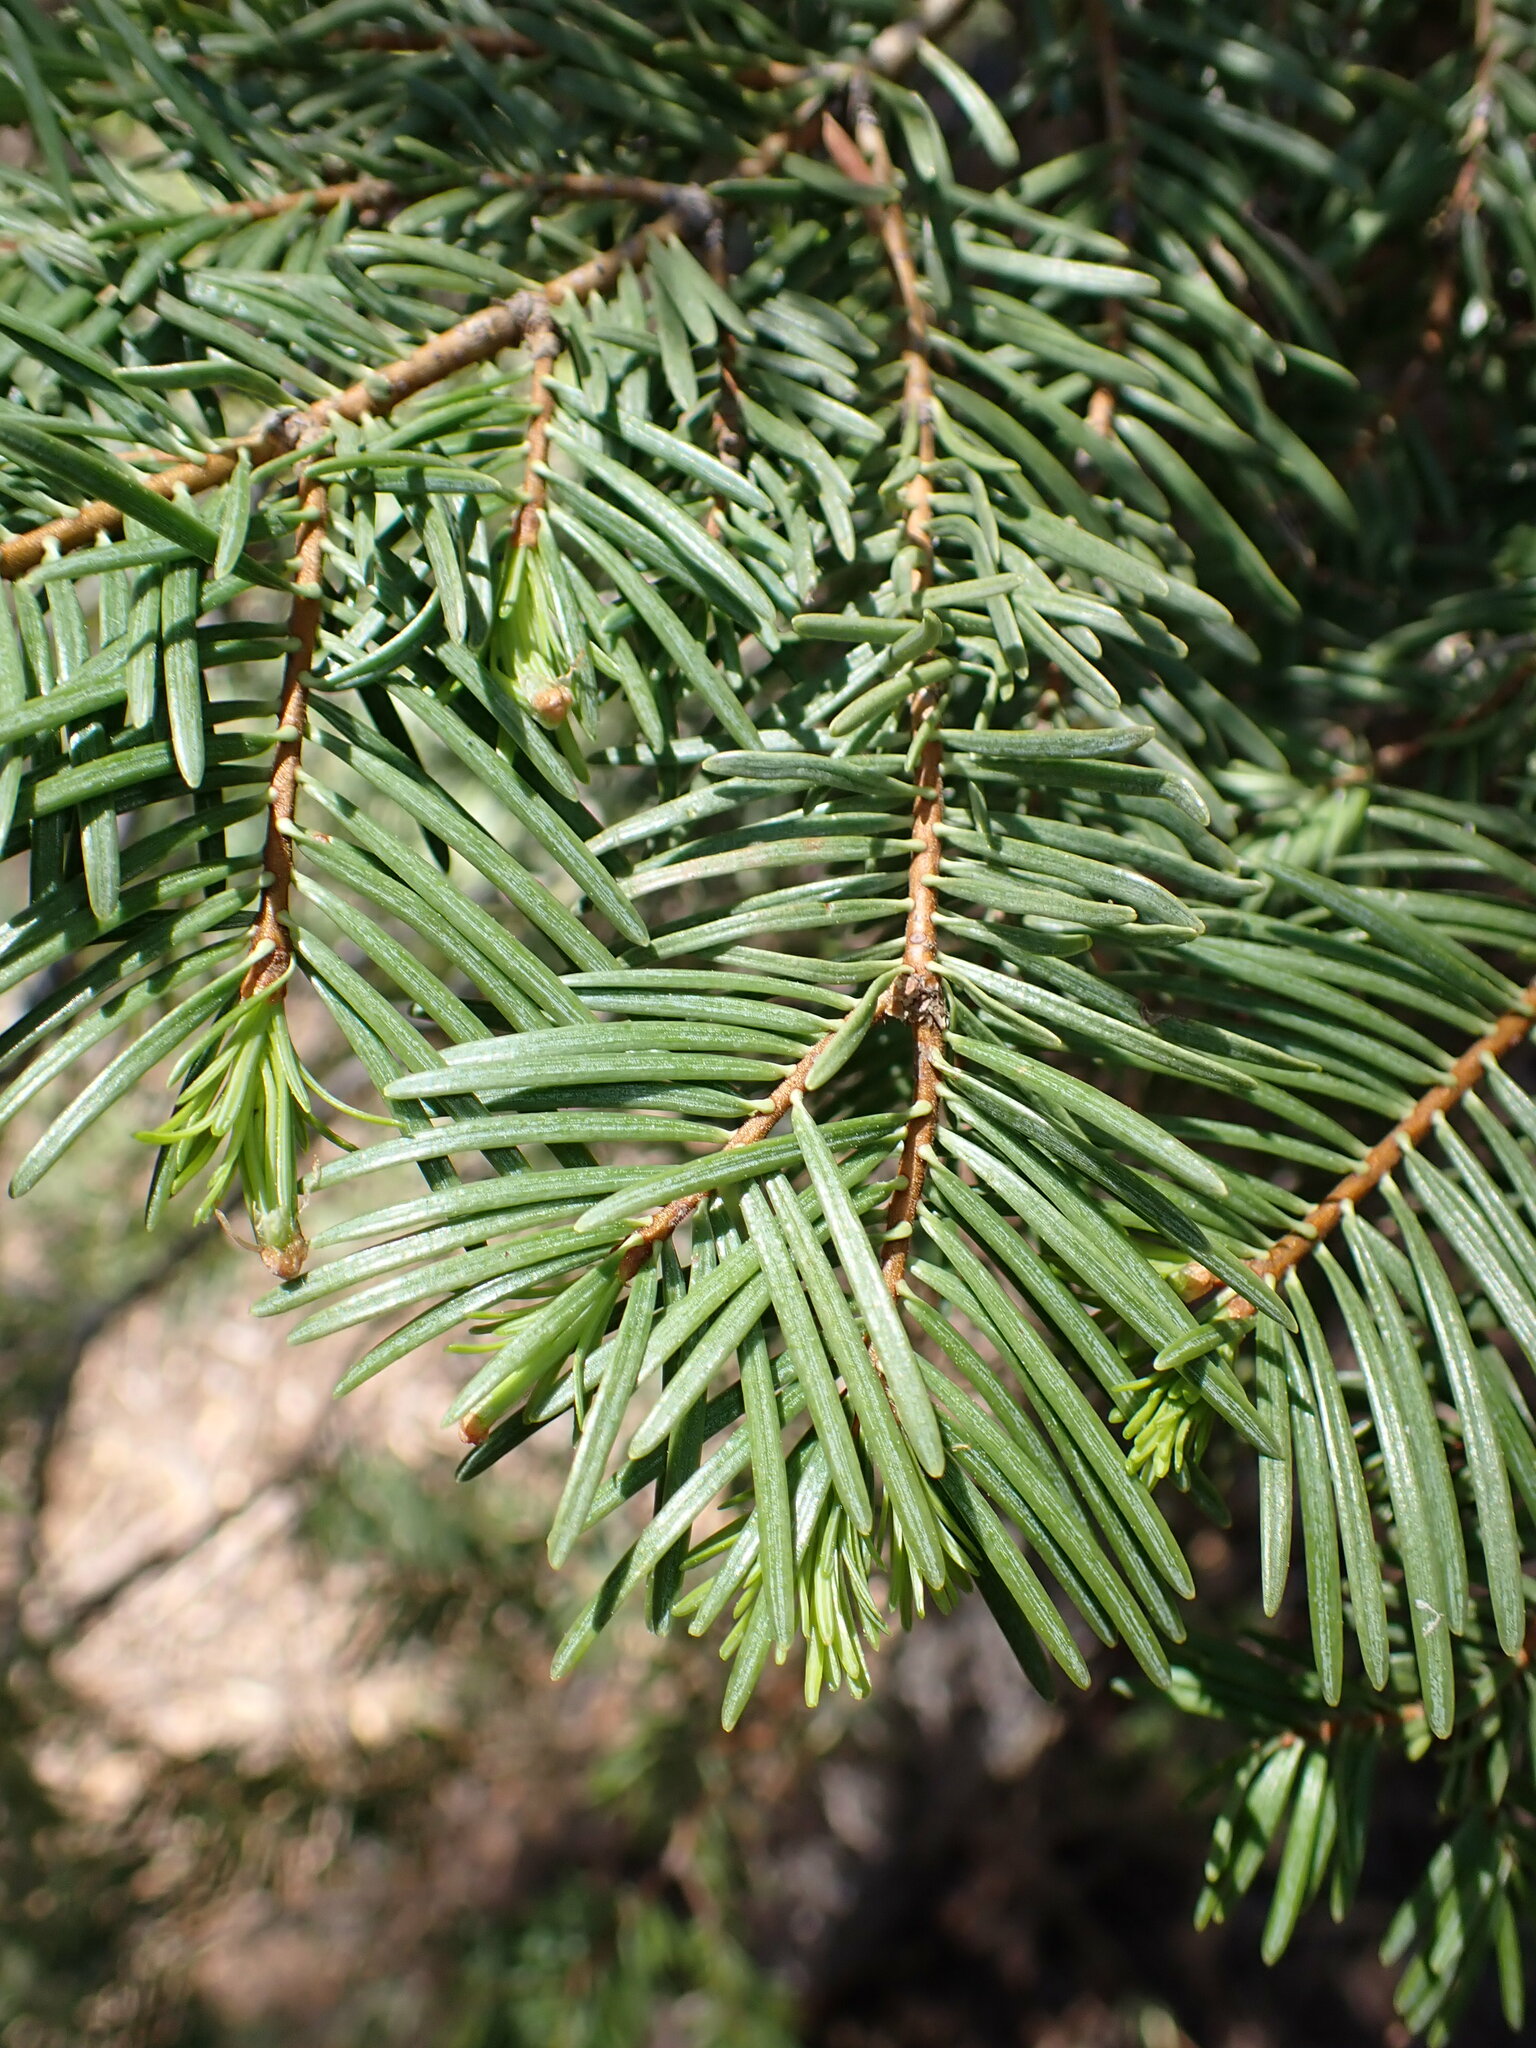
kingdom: Plantae
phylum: Tracheophyta
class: Pinopsida
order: Pinales
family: Pinaceae
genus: Abies
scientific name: Abies concolor
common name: Colorado fir
